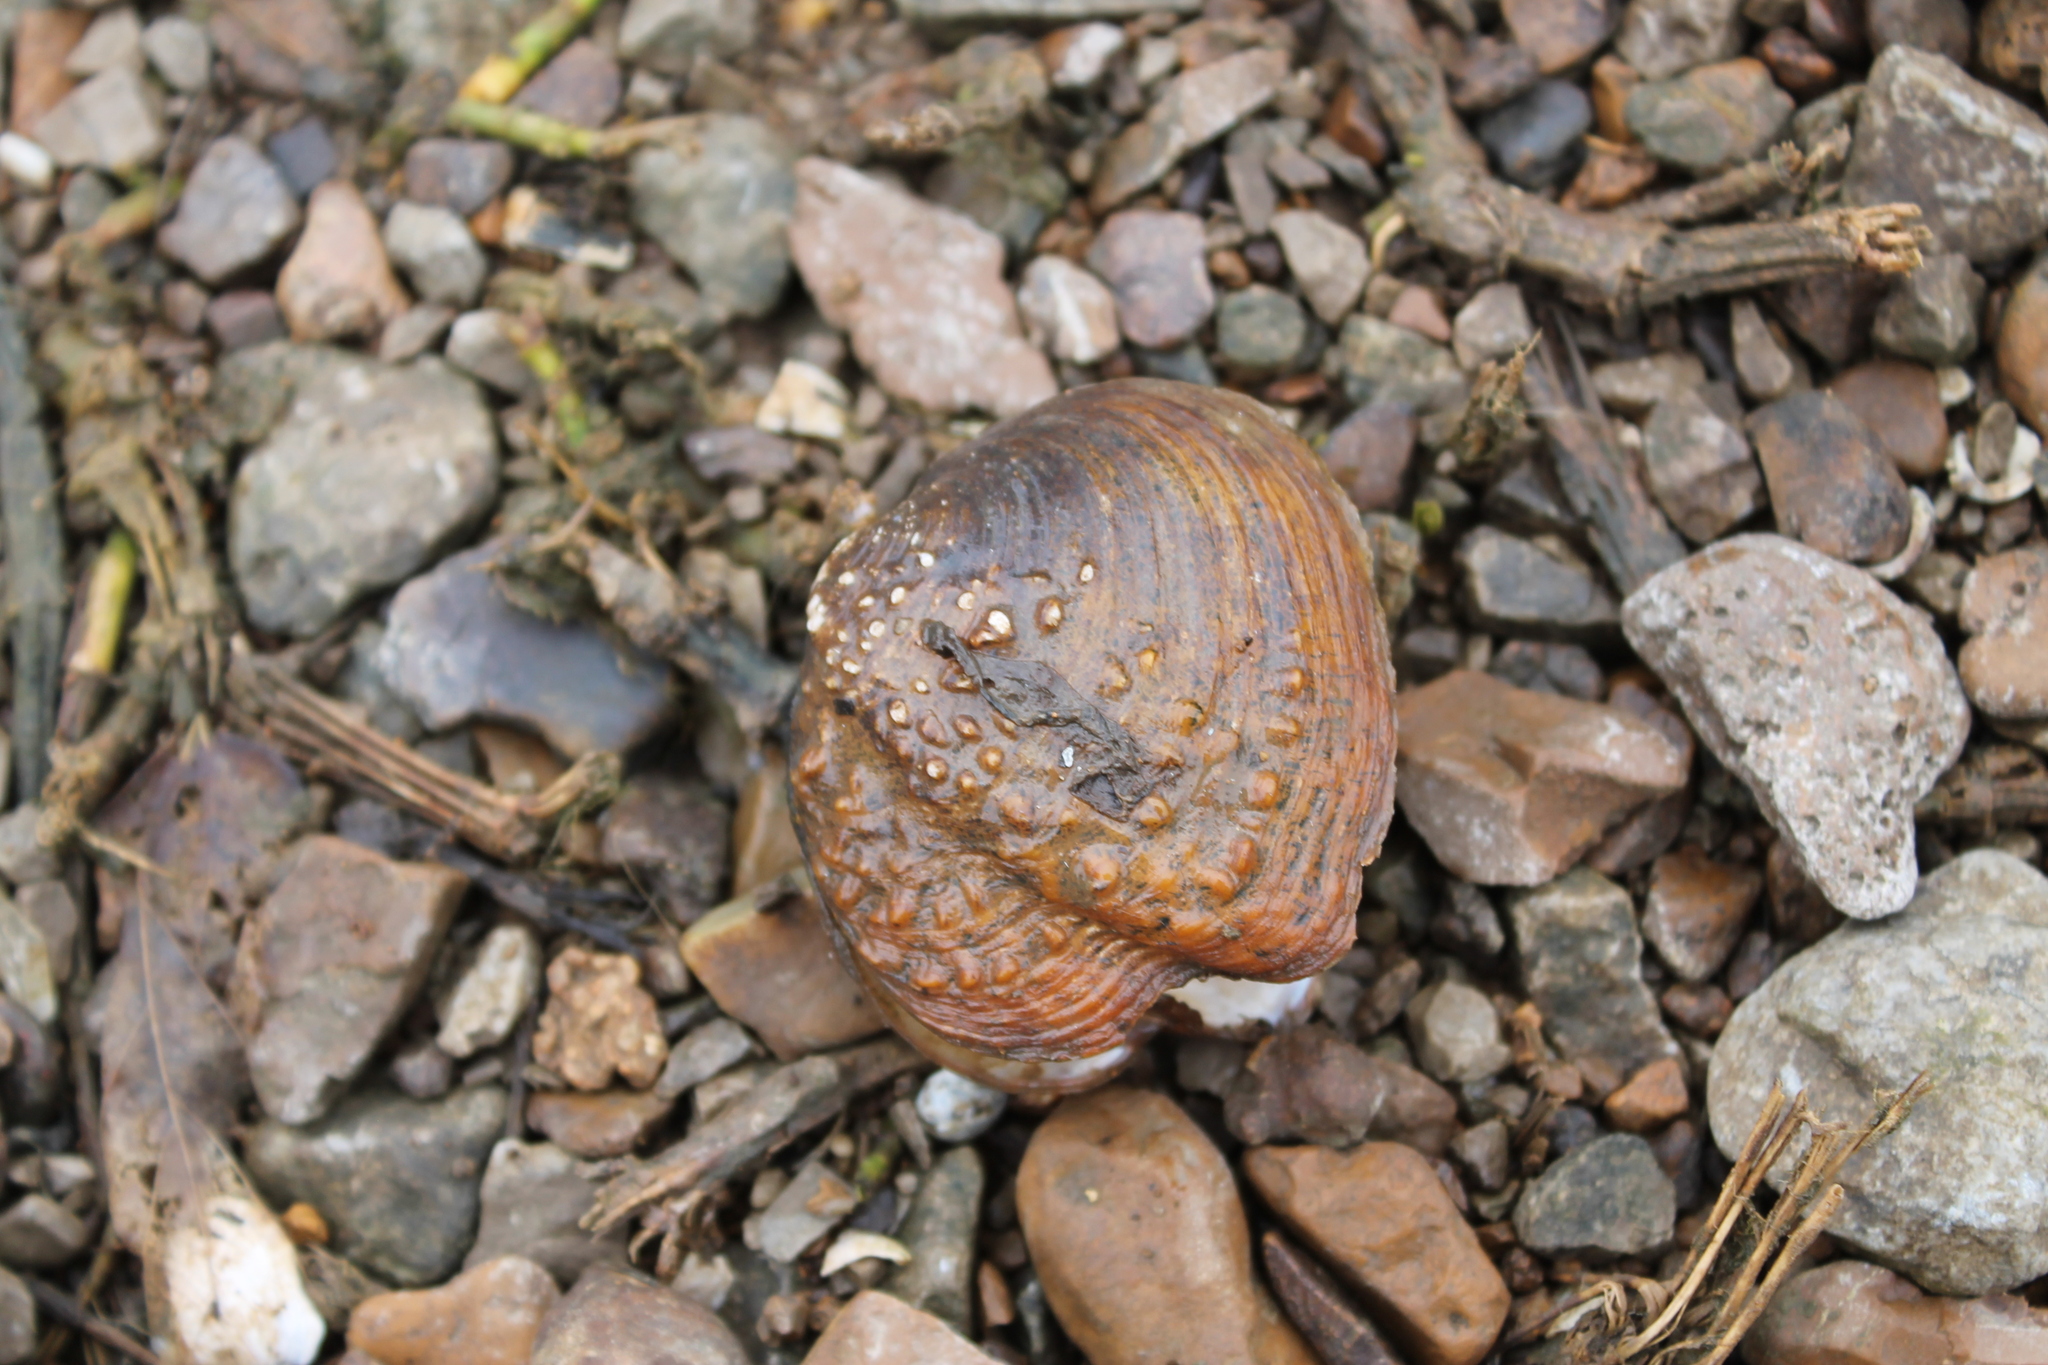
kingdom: Animalia
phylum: Mollusca
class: Bivalvia
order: Unionida
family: Unionidae
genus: Theliderma
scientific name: Theliderma intermedia
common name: Cumberland monkeyface
